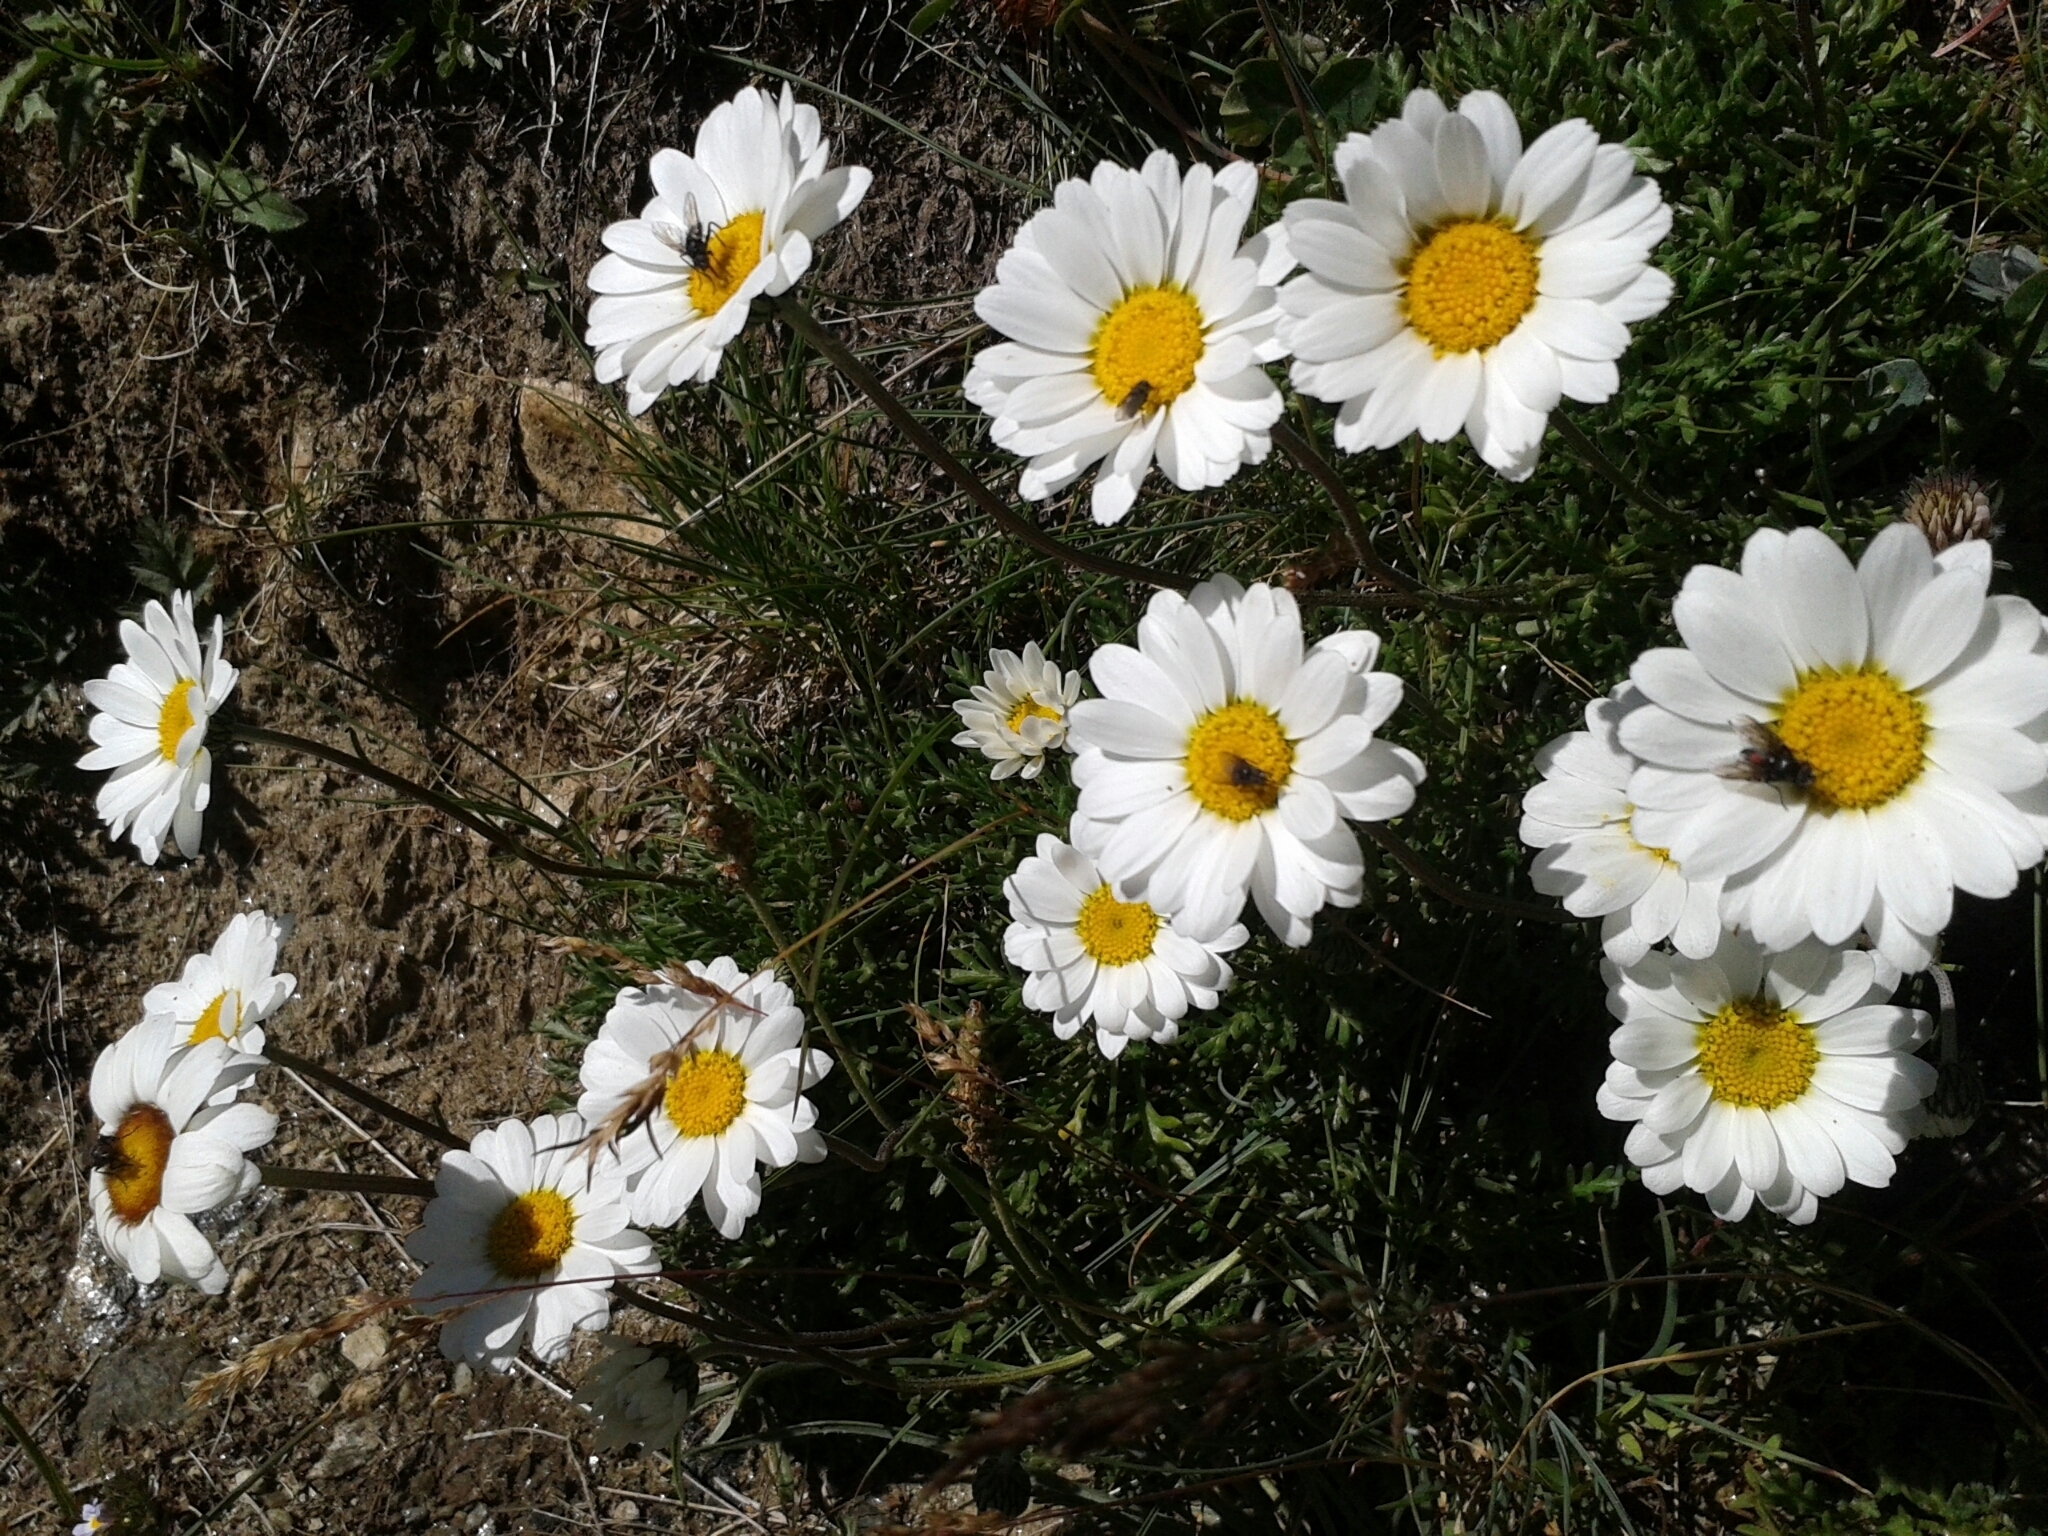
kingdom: Plantae
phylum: Tracheophyta
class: Magnoliopsida
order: Asterales
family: Asteraceae
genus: Leucanthemopsis
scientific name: Leucanthemopsis alpina
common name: Alpine moon daisy
